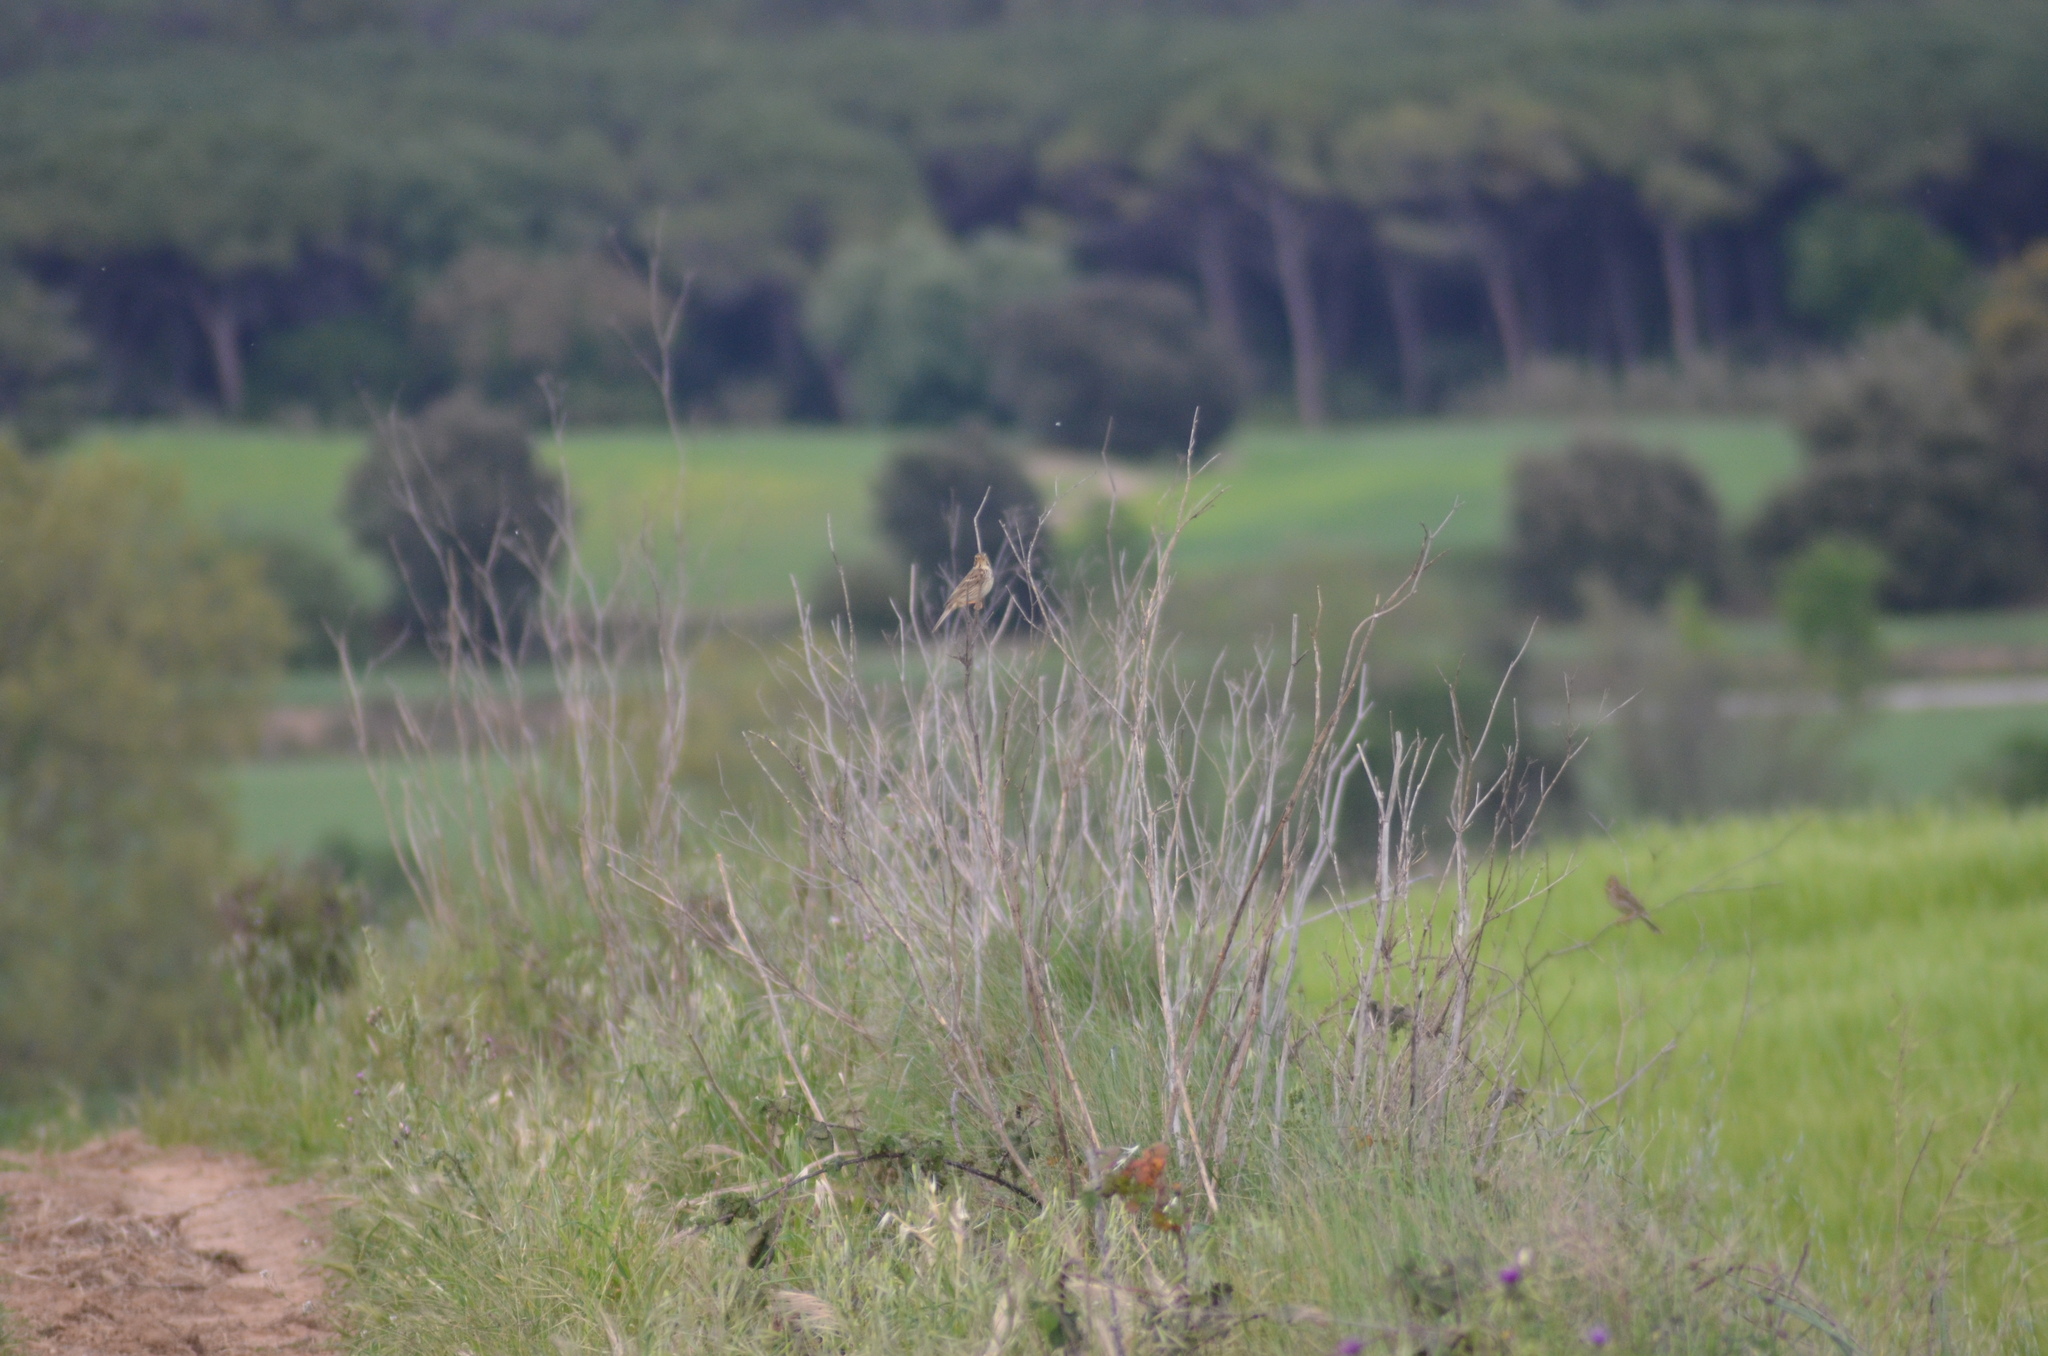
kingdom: Animalia
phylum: Chordata
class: Aves
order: Passeriformes
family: Emberizidae
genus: Emberiza
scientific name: Emberiza calandra
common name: Corn bunting
